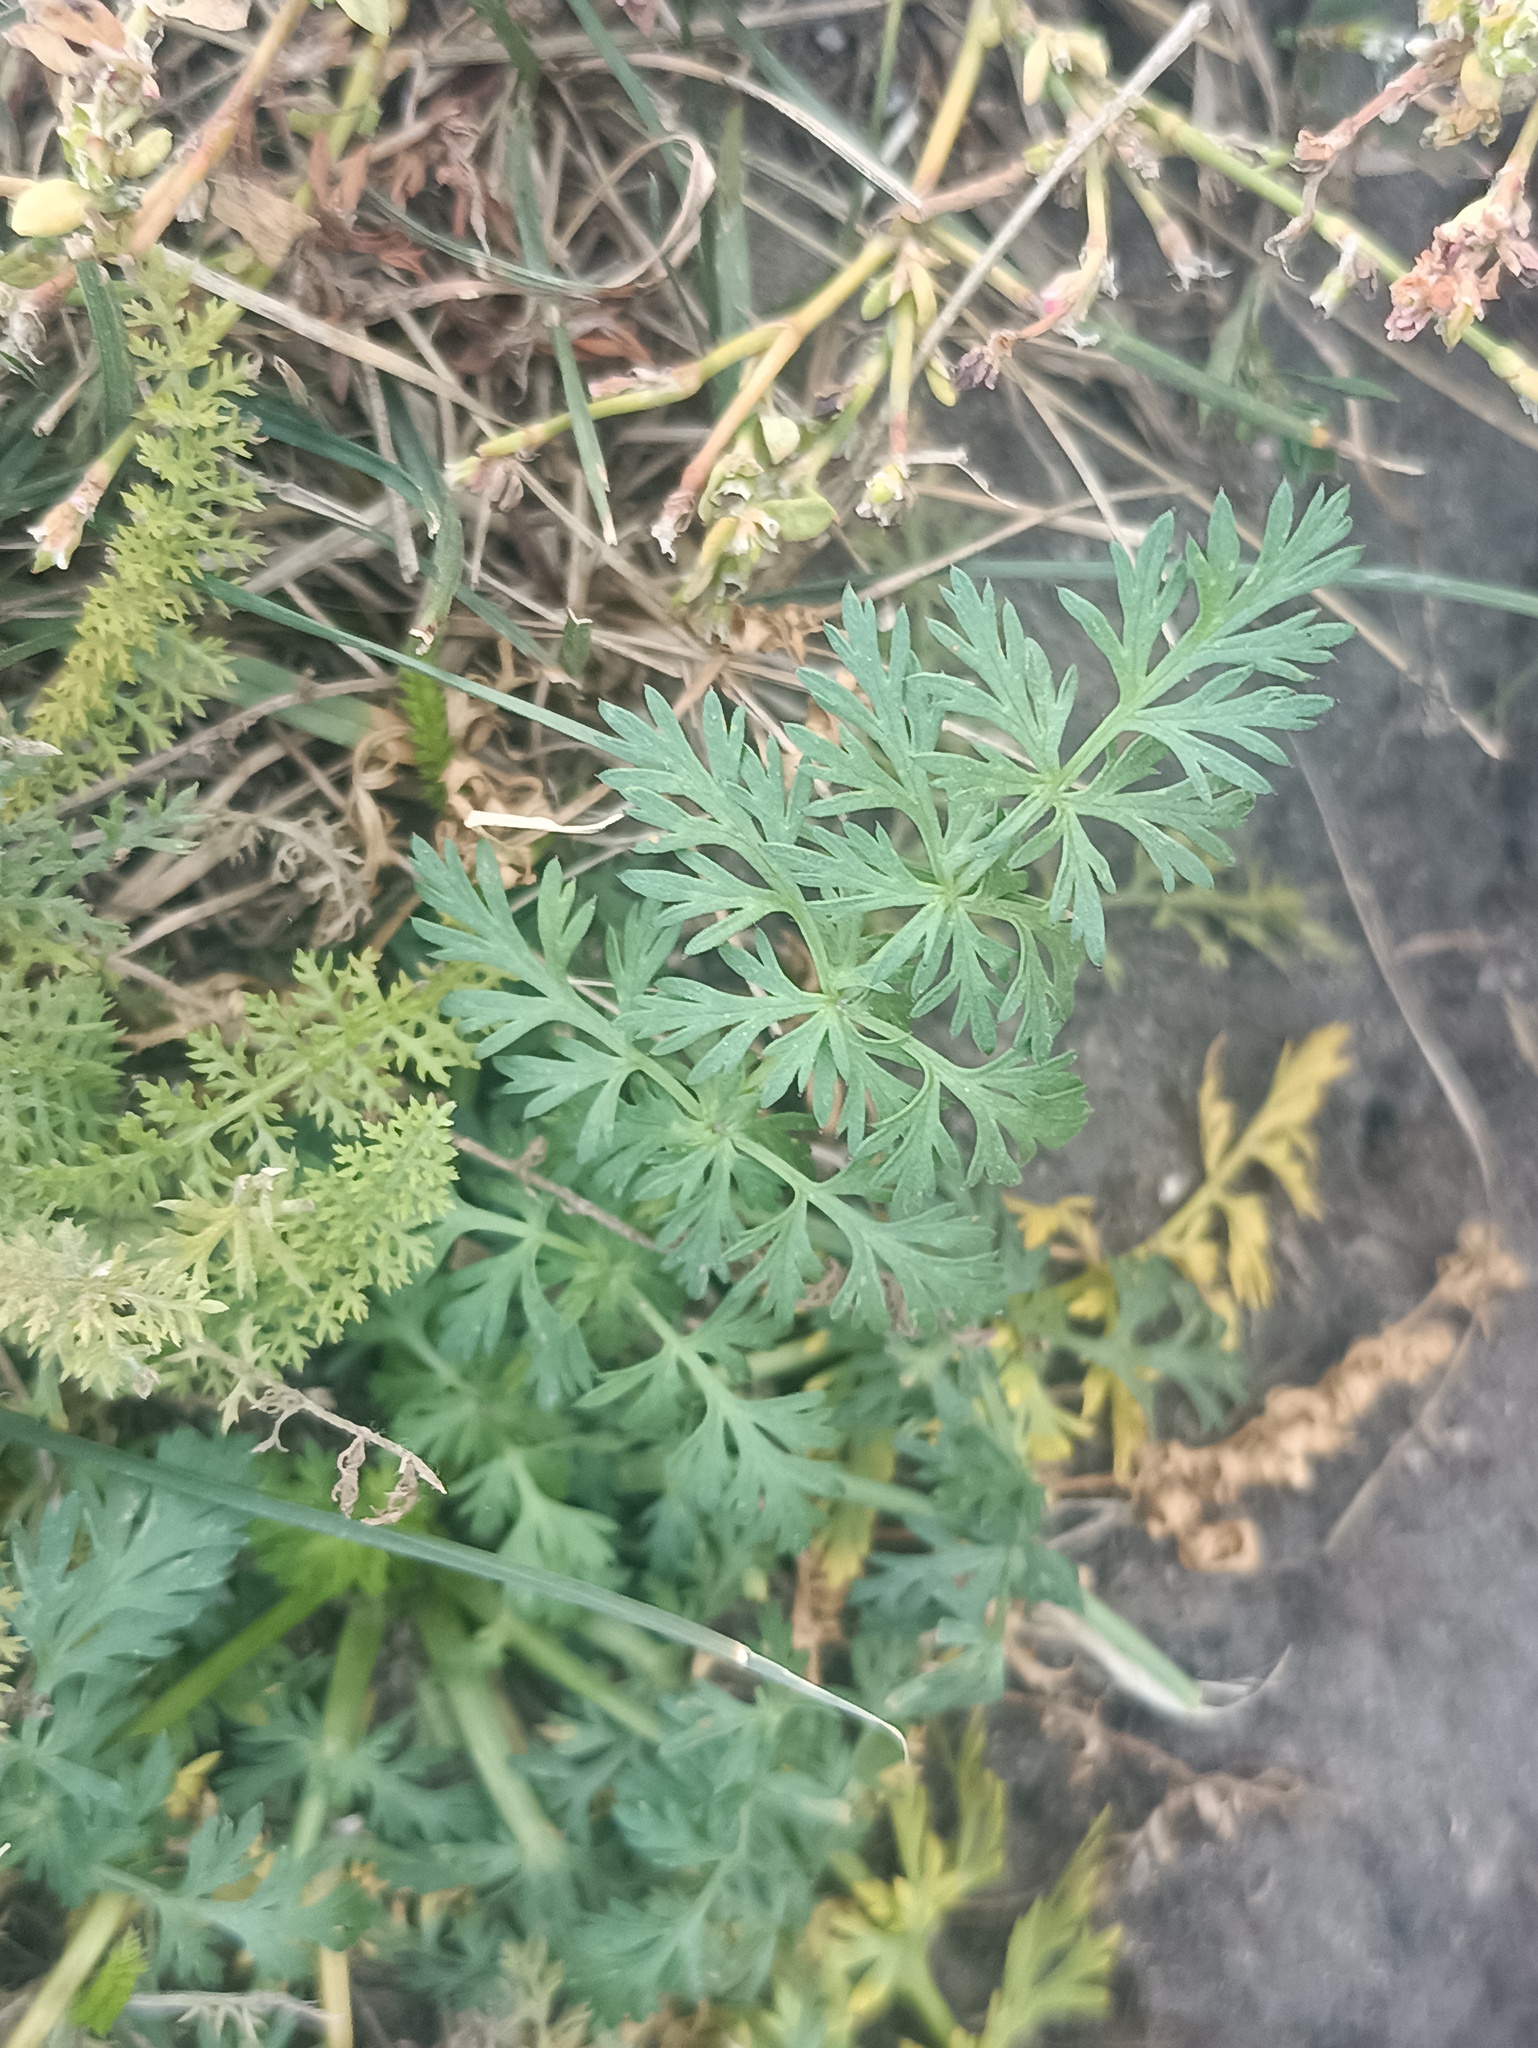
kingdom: Plantae
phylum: Tracheophyta
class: Magnoliopsida
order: Apiales
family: Apiaceae
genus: Carum
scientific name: Carum carvi
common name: Caraway
